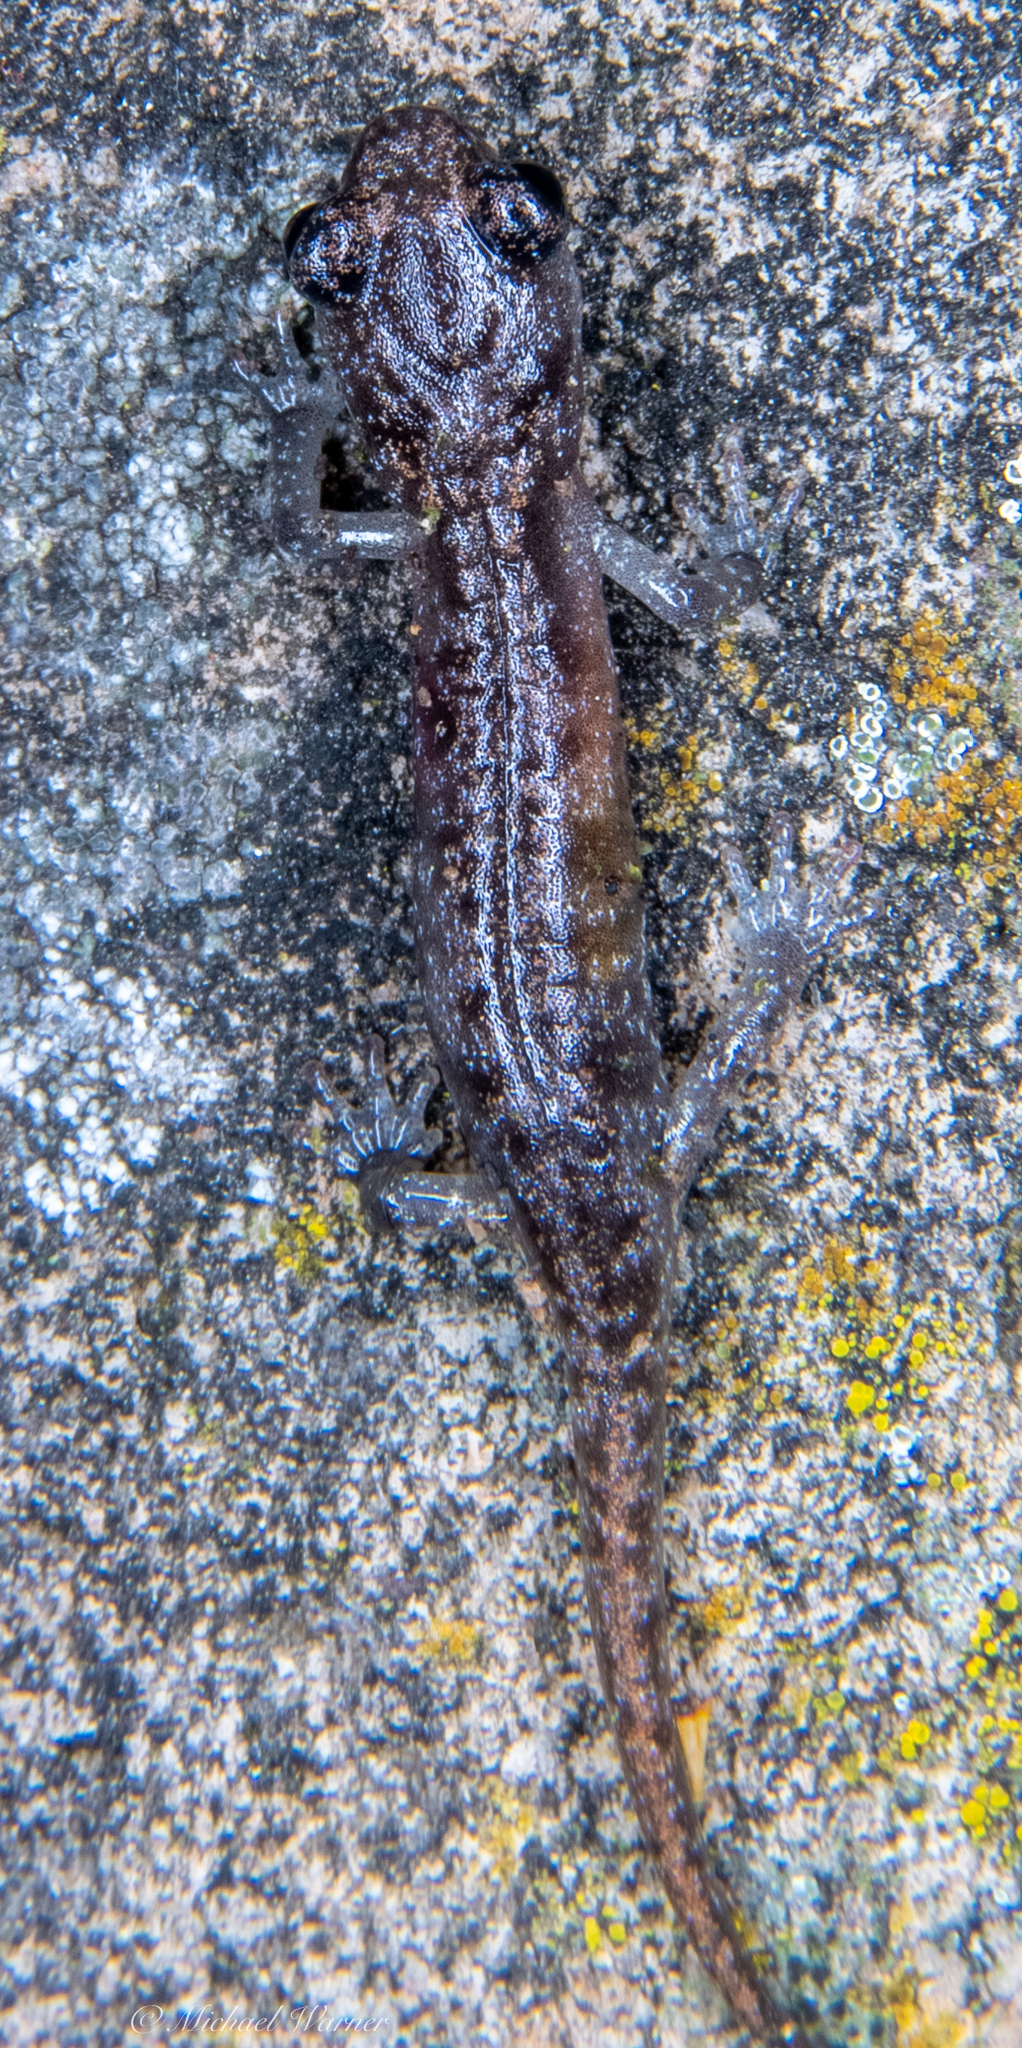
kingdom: Animalia
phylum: Chordata
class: Amphibia
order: Caudata
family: Plethodontidae
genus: Aneides
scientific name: Aneides lugubris
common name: Arboreal salamander
